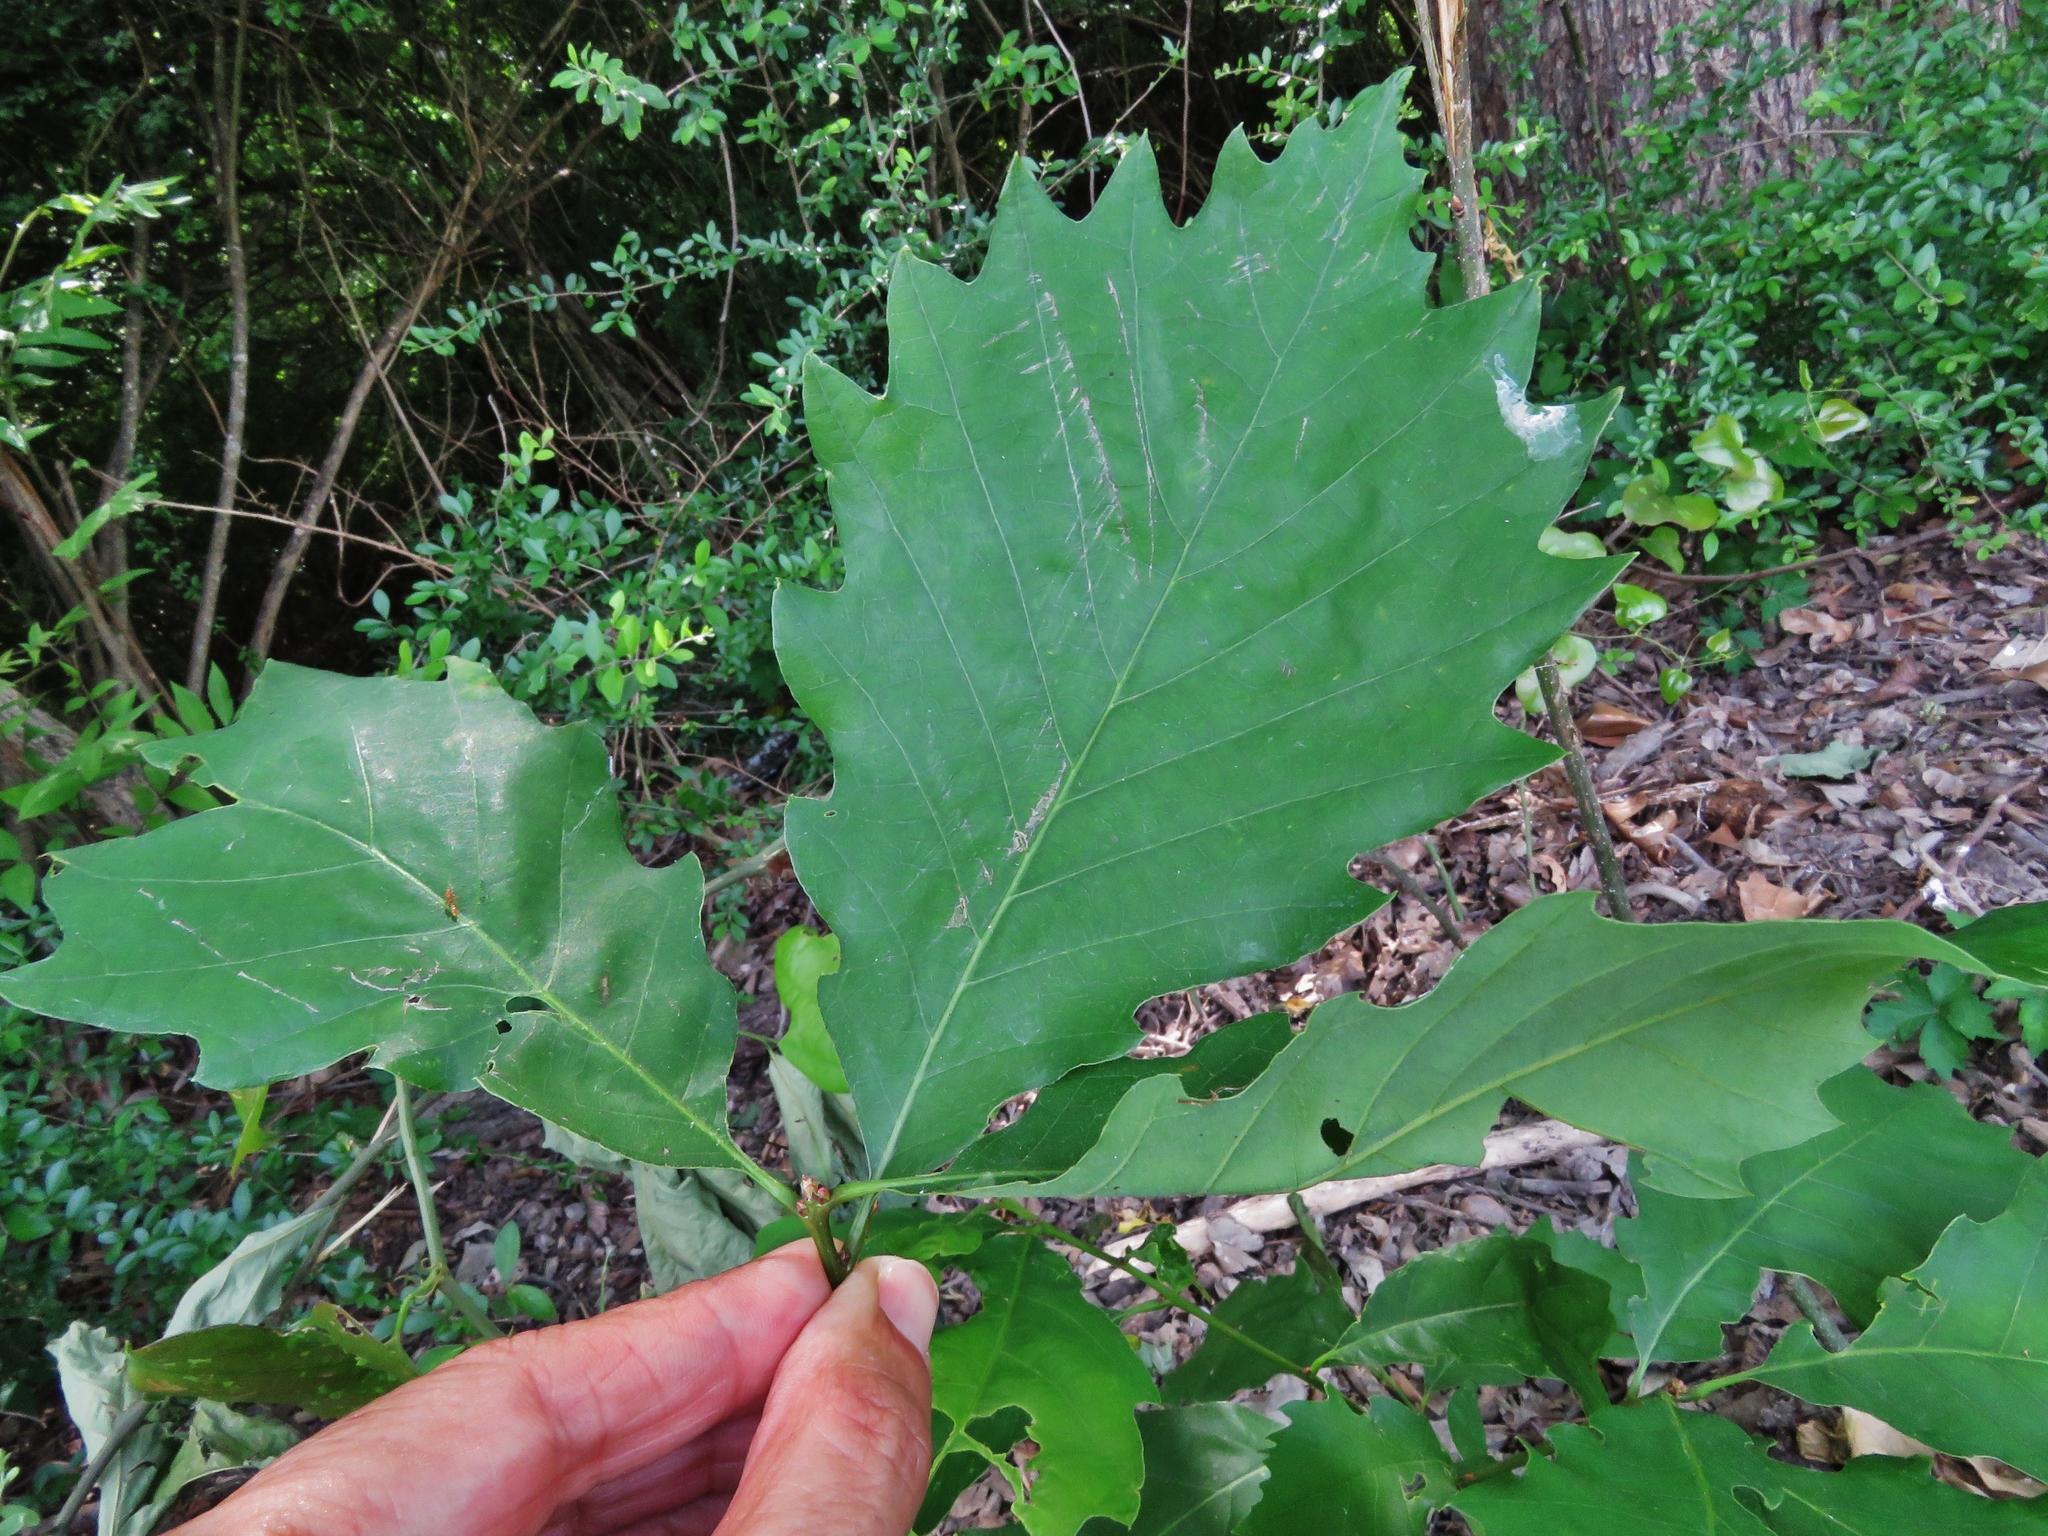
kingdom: Plantae
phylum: Tracheophyta
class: Magnoliopsida
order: Fagales
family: Fagaceae
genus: Quercus
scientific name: Quercus muehlenbergii
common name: Chinkapin oak
